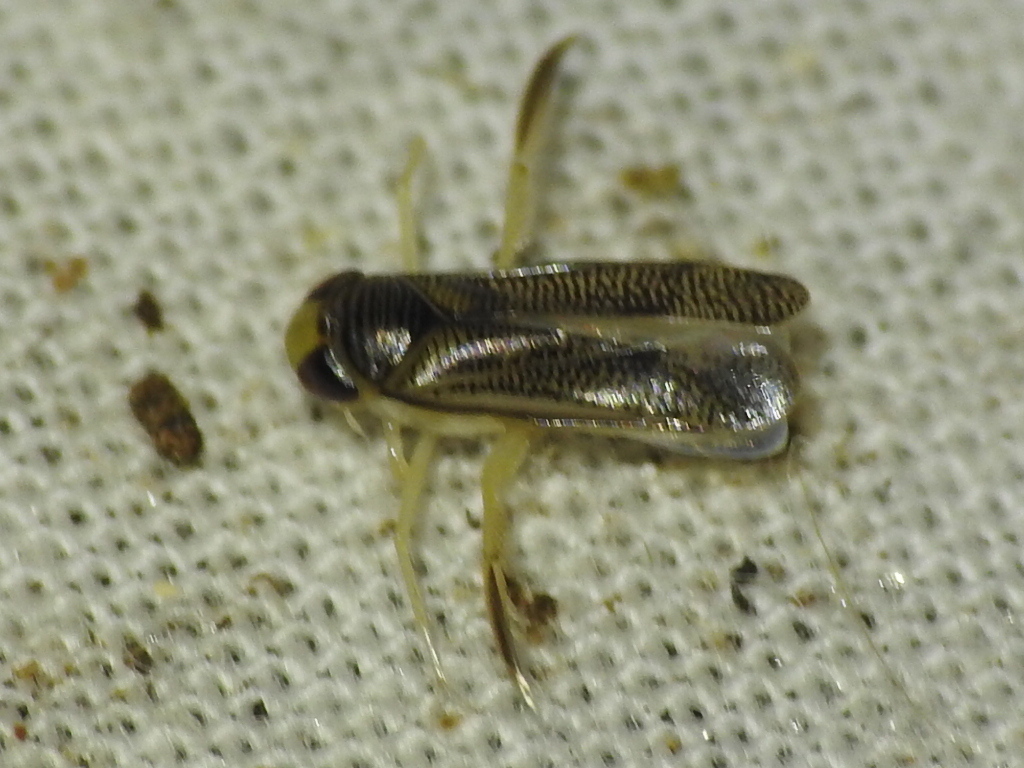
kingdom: Animalia
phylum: Arthropoda
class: Insecta
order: Hemiptera
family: Corixidae
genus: Trichocorixa
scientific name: Trichocorixa
